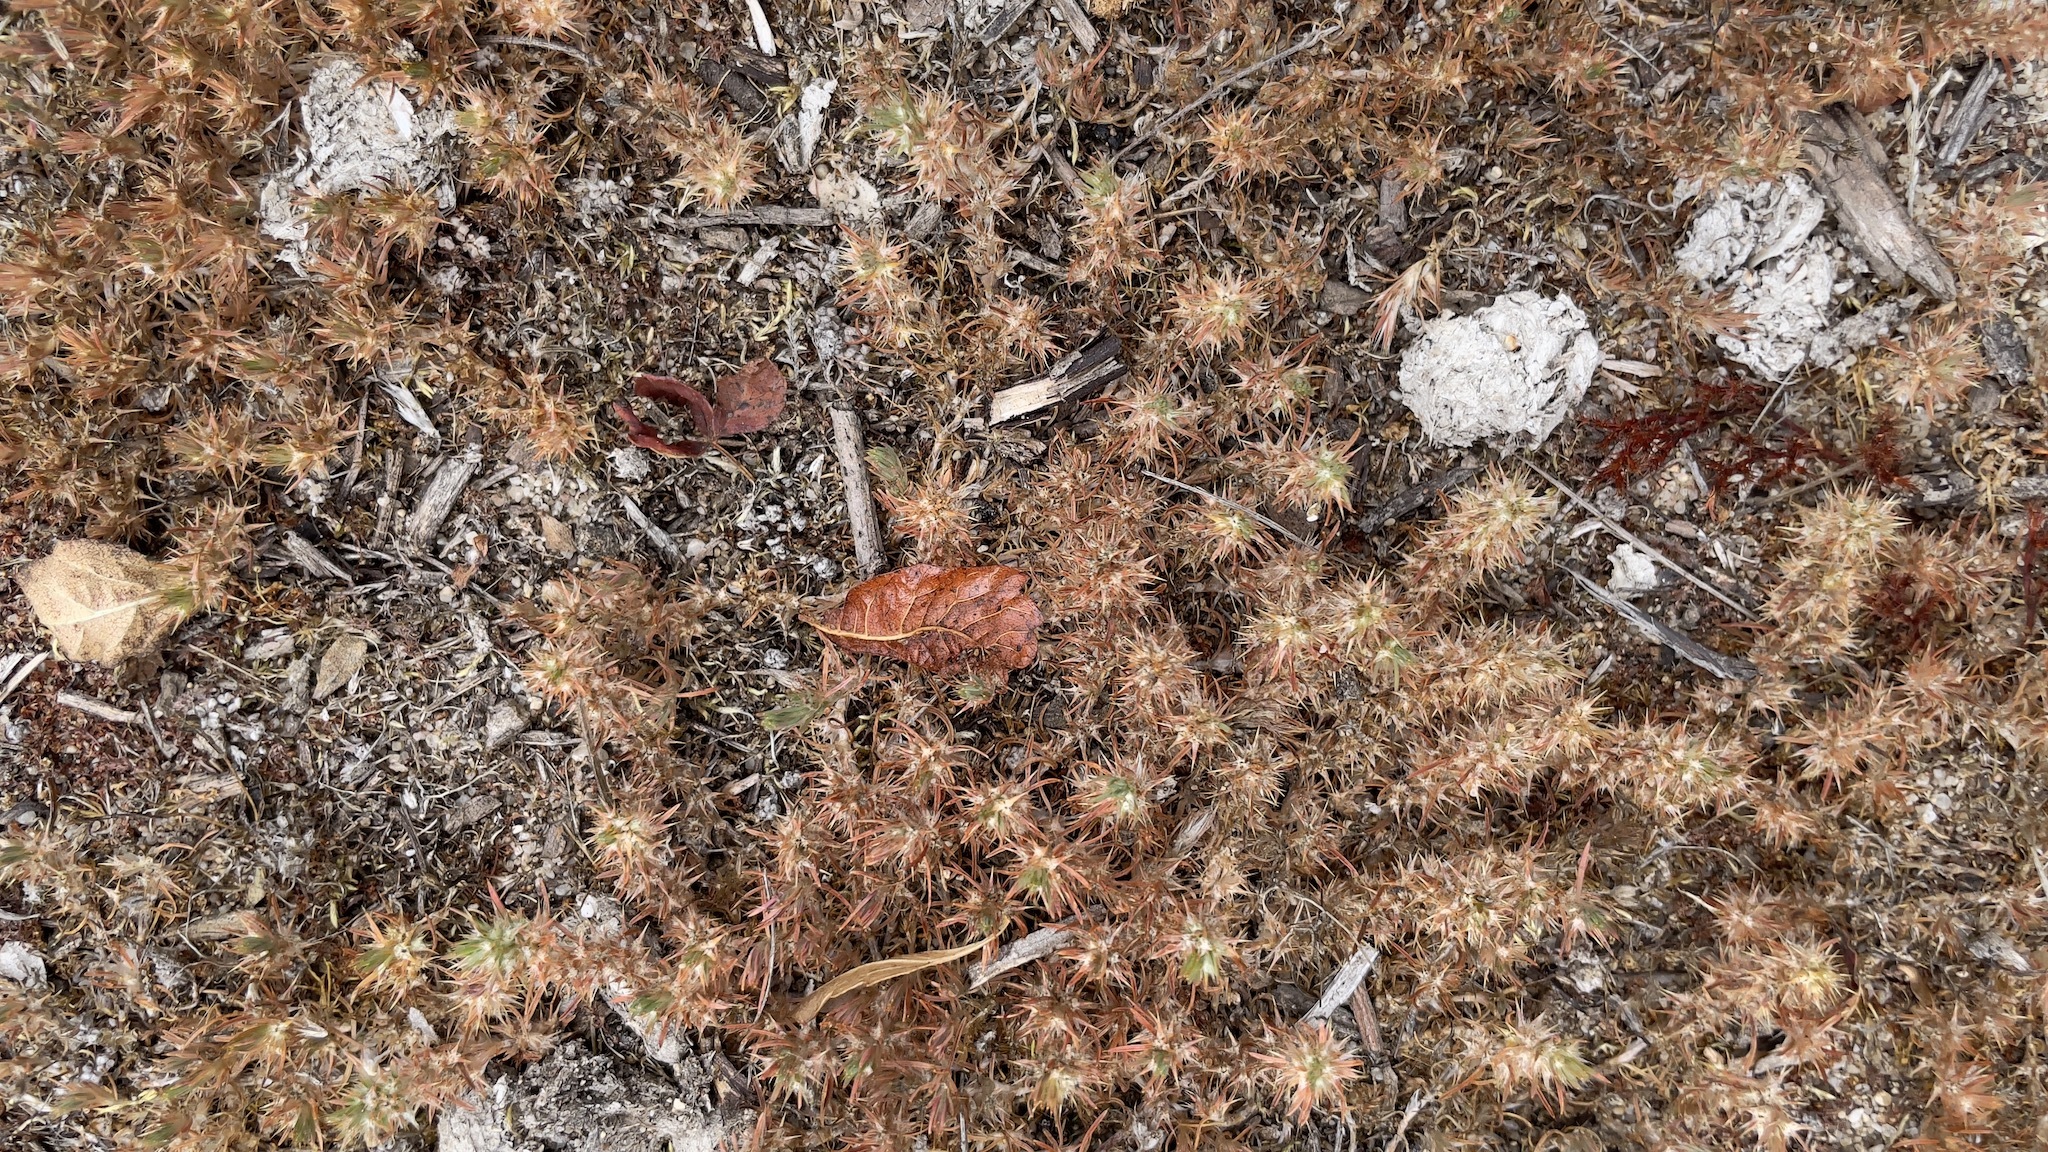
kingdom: Plantae
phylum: Tracheophyta
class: Magnoliopsida
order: Caryophyllales
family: Caryophyllaceae
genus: Cardionema
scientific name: Cardionema ramosissima
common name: Sandcarpet
